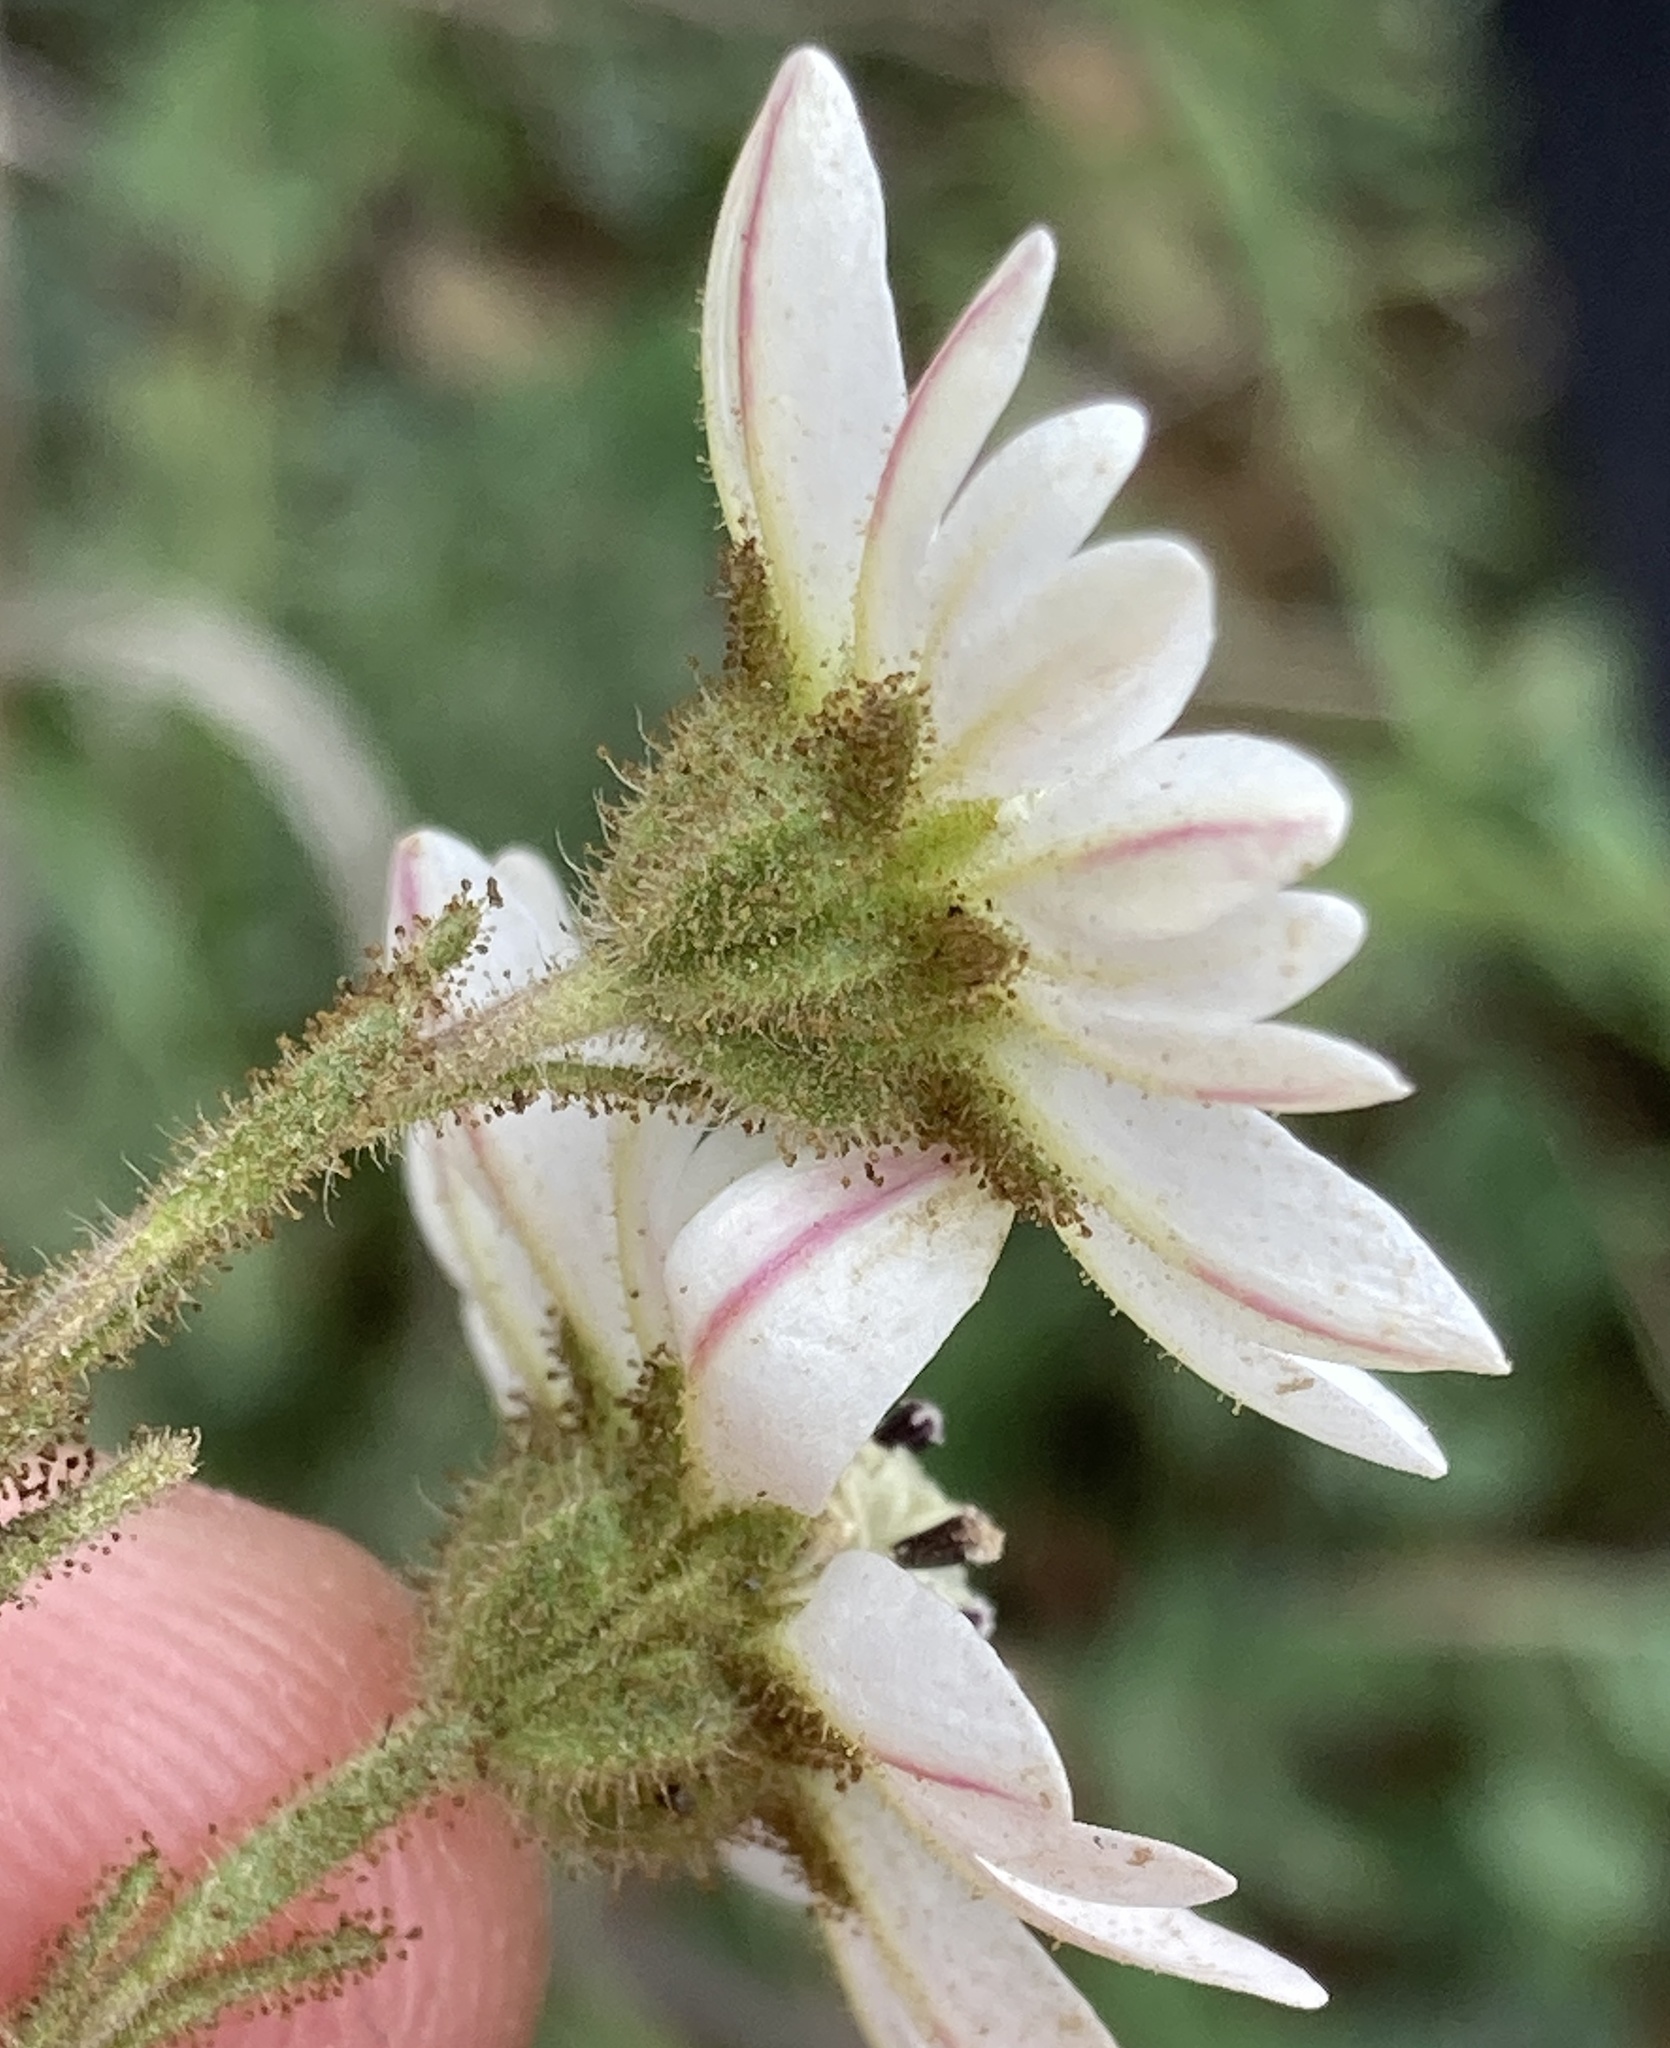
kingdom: Plantae
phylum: Tracheophyta
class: Magnoliopsida
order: Asterales
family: Asteraceae
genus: Hemizonia
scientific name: Hemizonia congesta
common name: Hayfield tarweed
